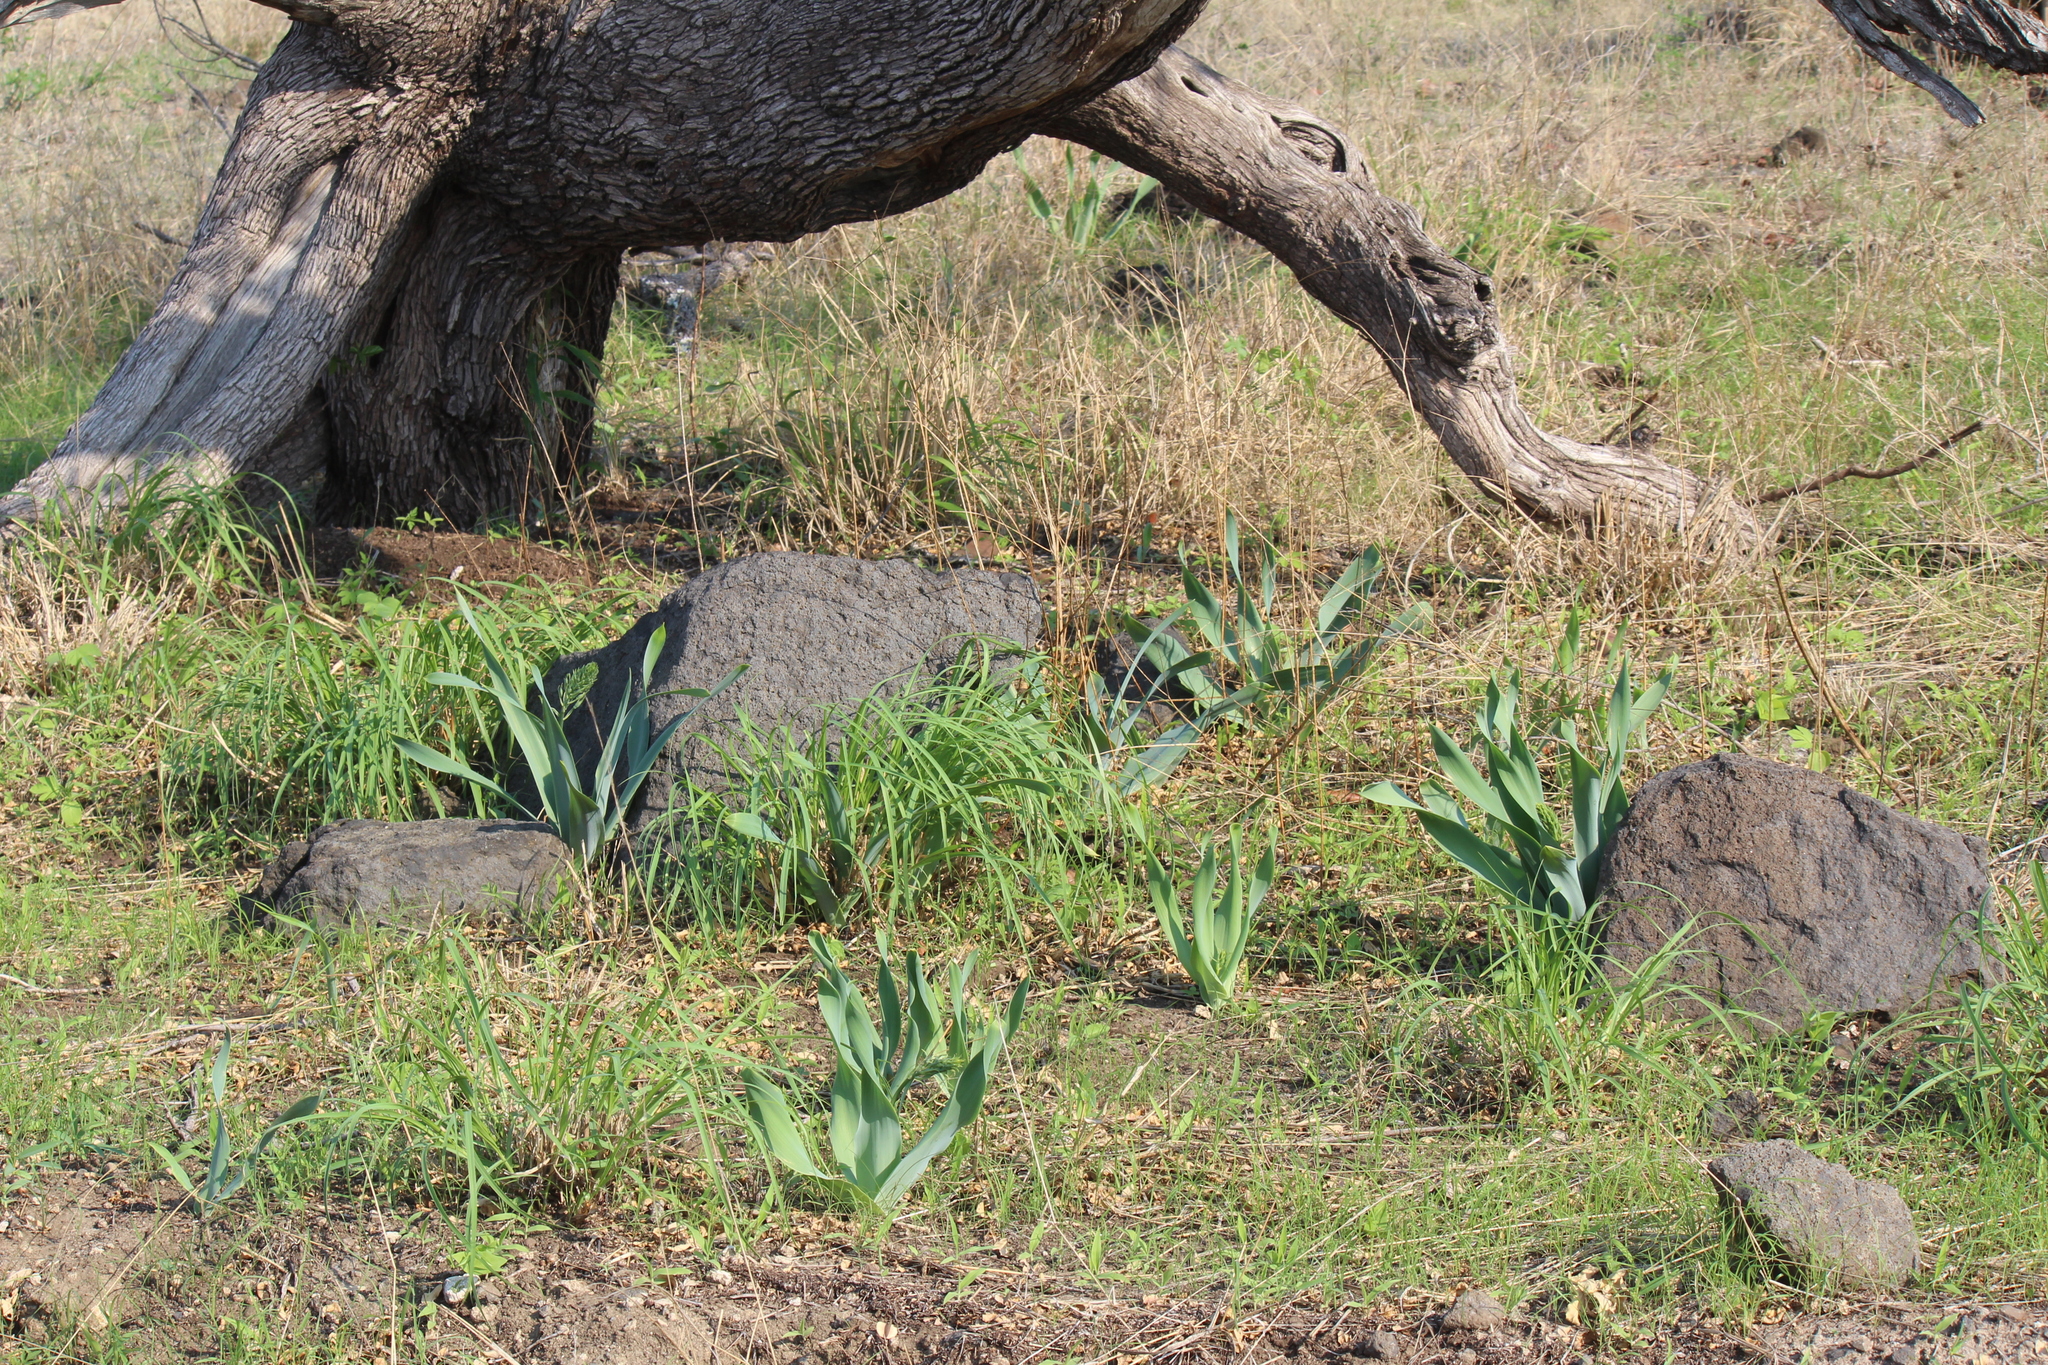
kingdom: Plantae
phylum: Tracheophyta
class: Liliopsida
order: Asparagales
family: Asparagaceae
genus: Drimia
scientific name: Drimia altissima
